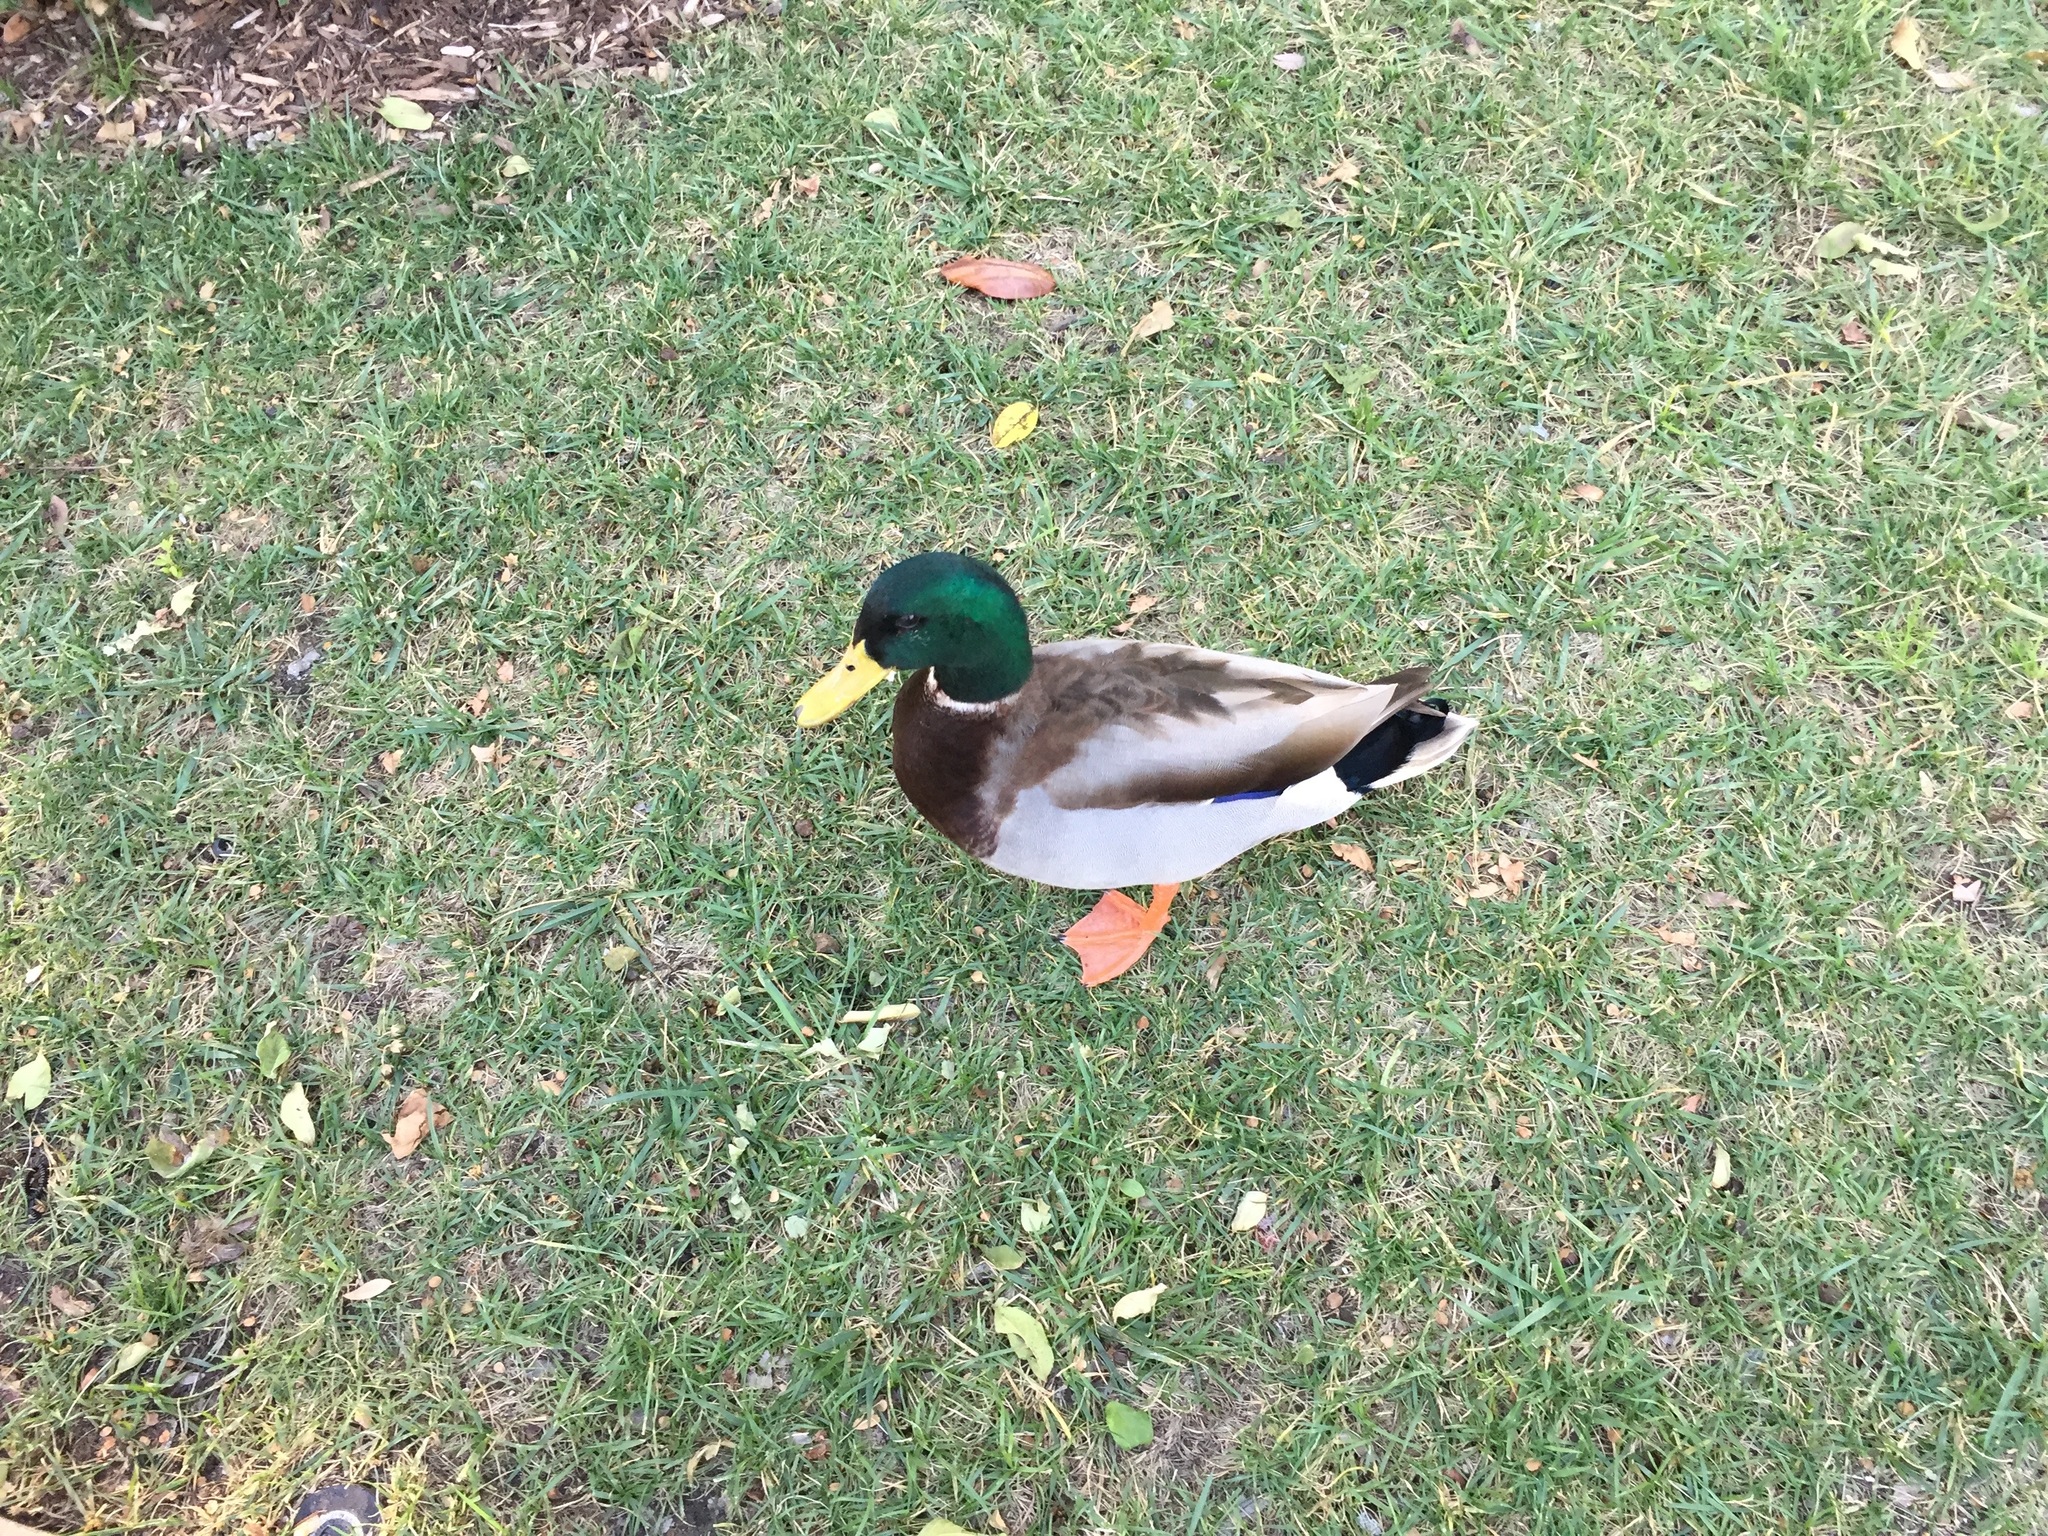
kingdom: Animalia
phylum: Chordata
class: Aves
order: Anseriformes
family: Anatidae
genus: Anas
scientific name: Anas platyrhynchos
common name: Mallard
